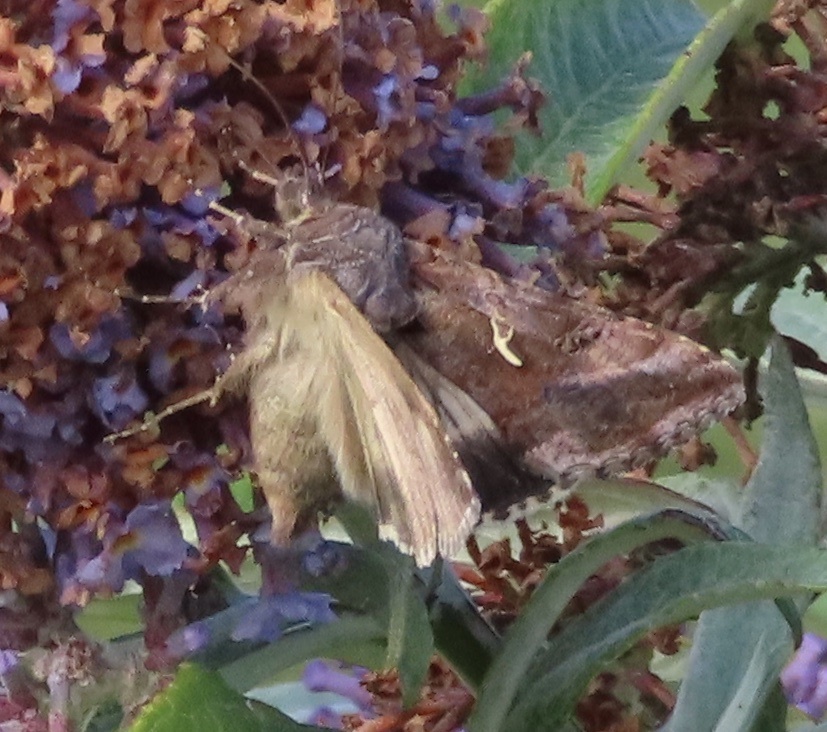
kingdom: Animalia
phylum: Arthropoda
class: Insecta
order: Lepidoptera
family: Noctuidae
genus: Autographa
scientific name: Autographa gamma
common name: Silver y
